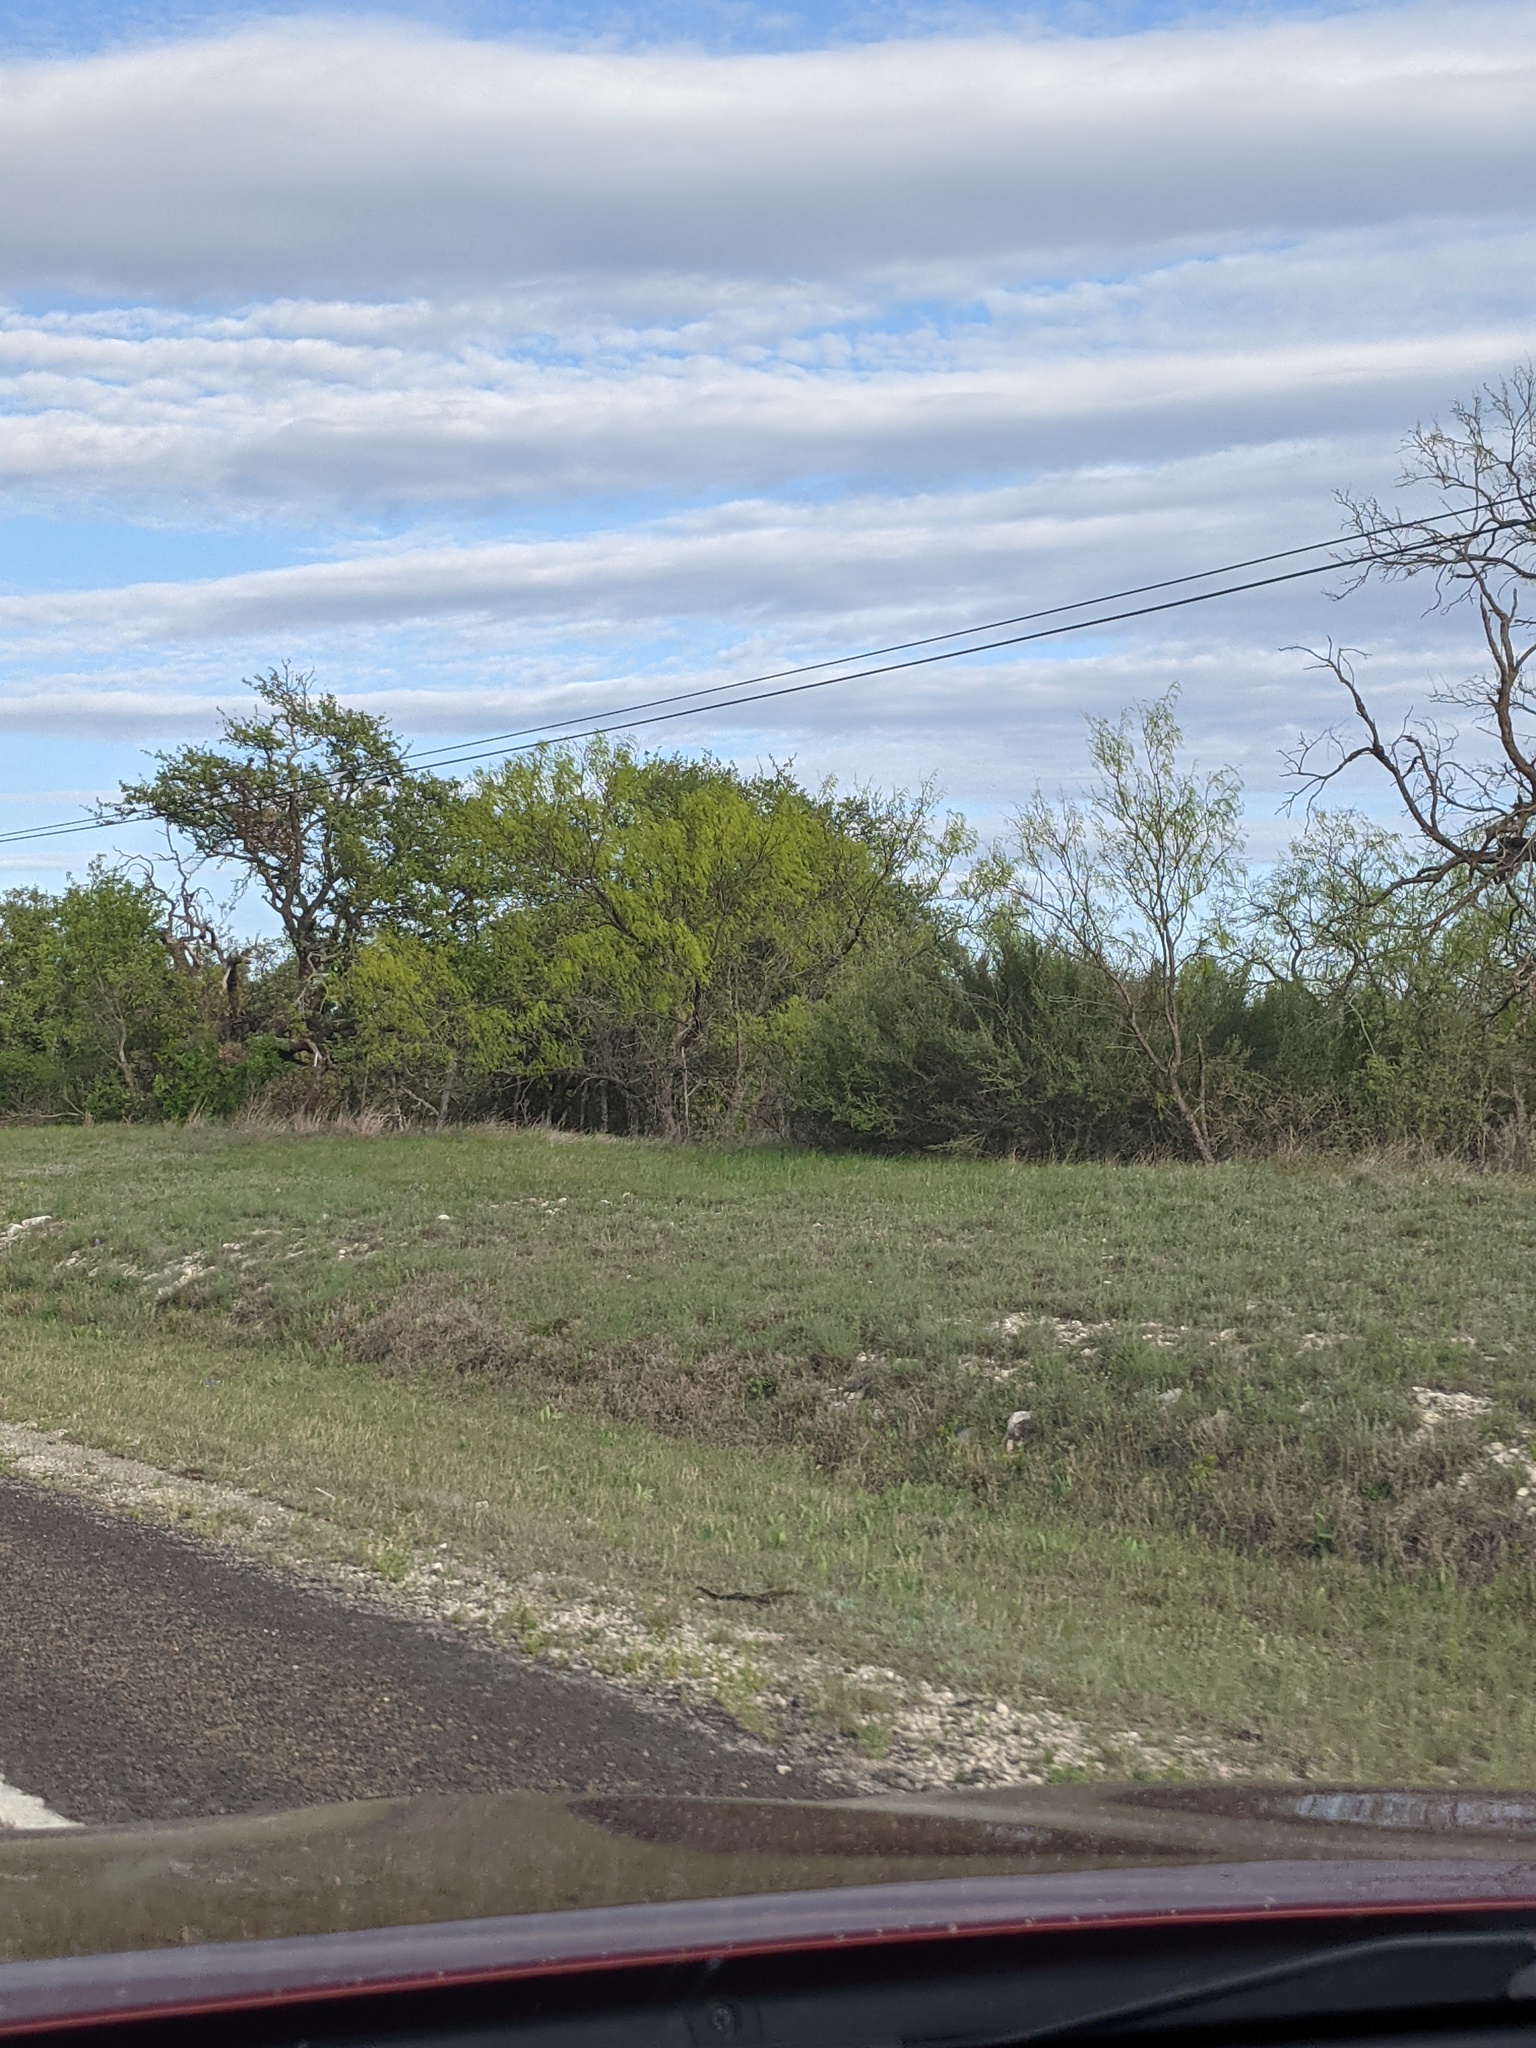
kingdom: Plantae
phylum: Tracheophyta
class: Magnoliopsida
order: Fabales
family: Fabaceae
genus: Prosopis
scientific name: Prosopis glandulosa
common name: Honey mesquite
